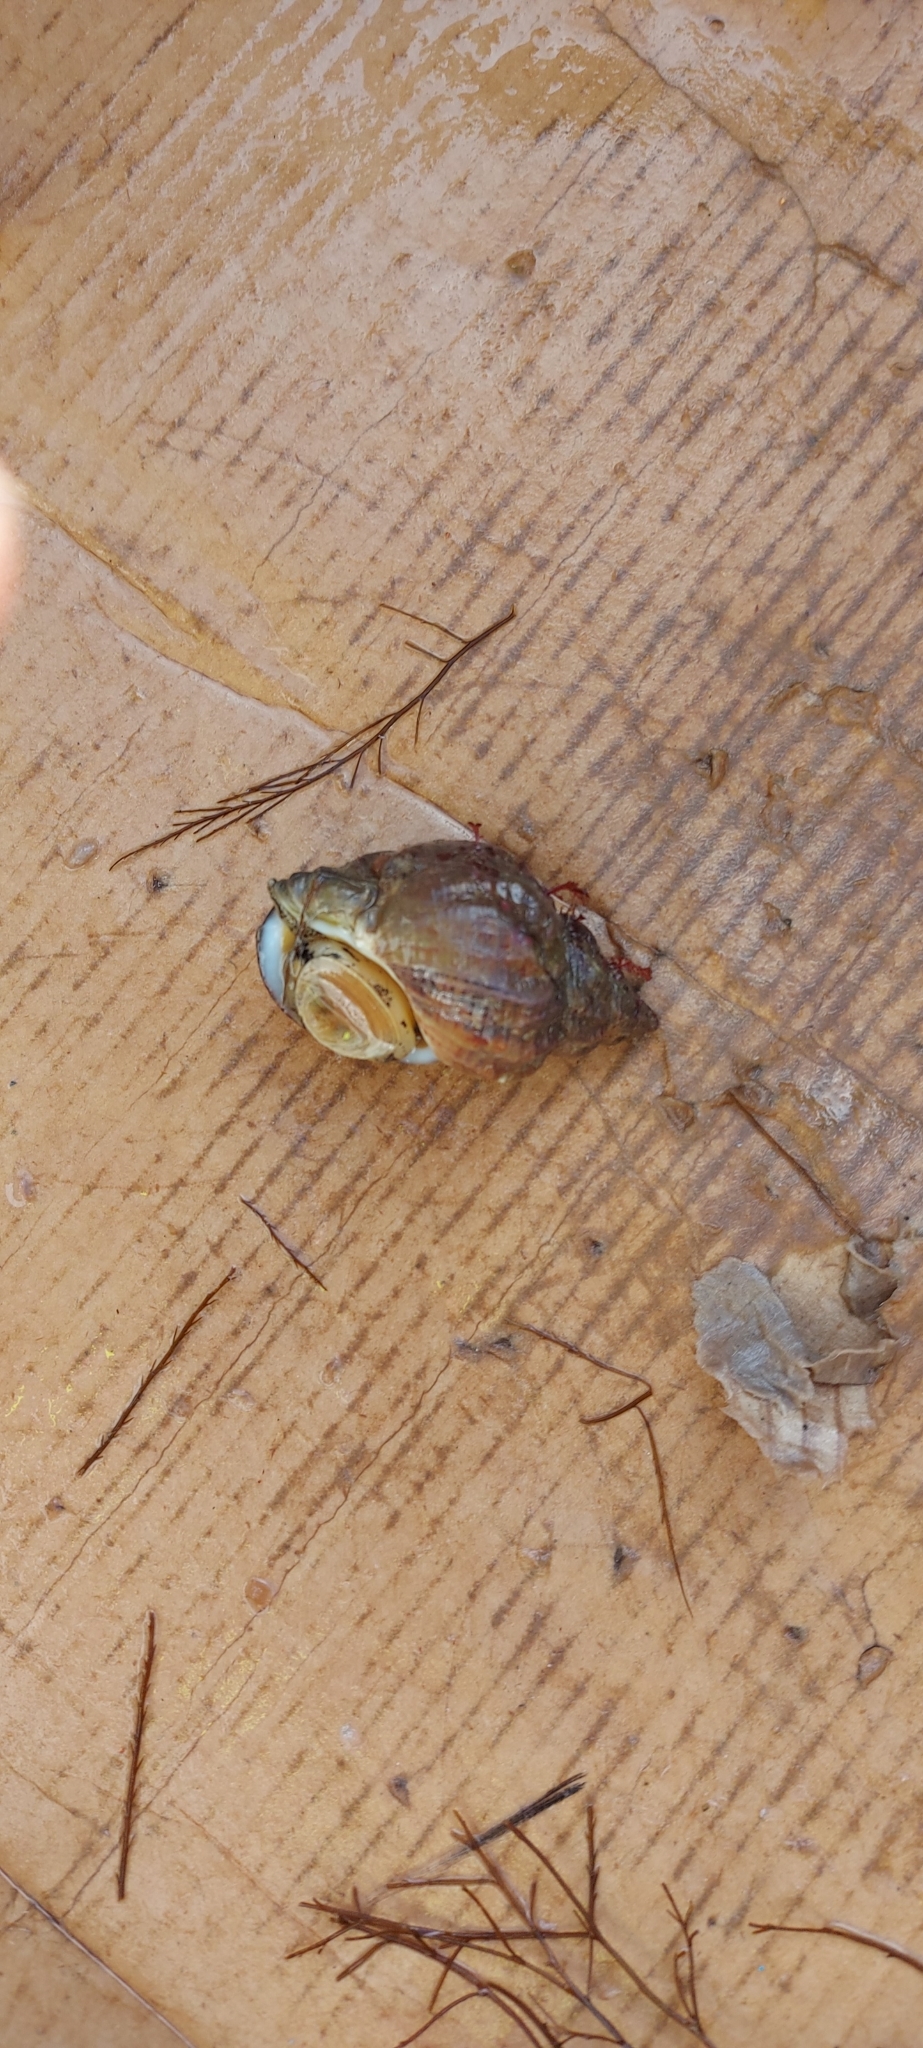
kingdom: Animalia
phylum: Mollusca
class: Gastropoda
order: Neogastropoda
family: Buccinidae
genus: Buccinum
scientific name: Buccinum undatum
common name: Common whelk
